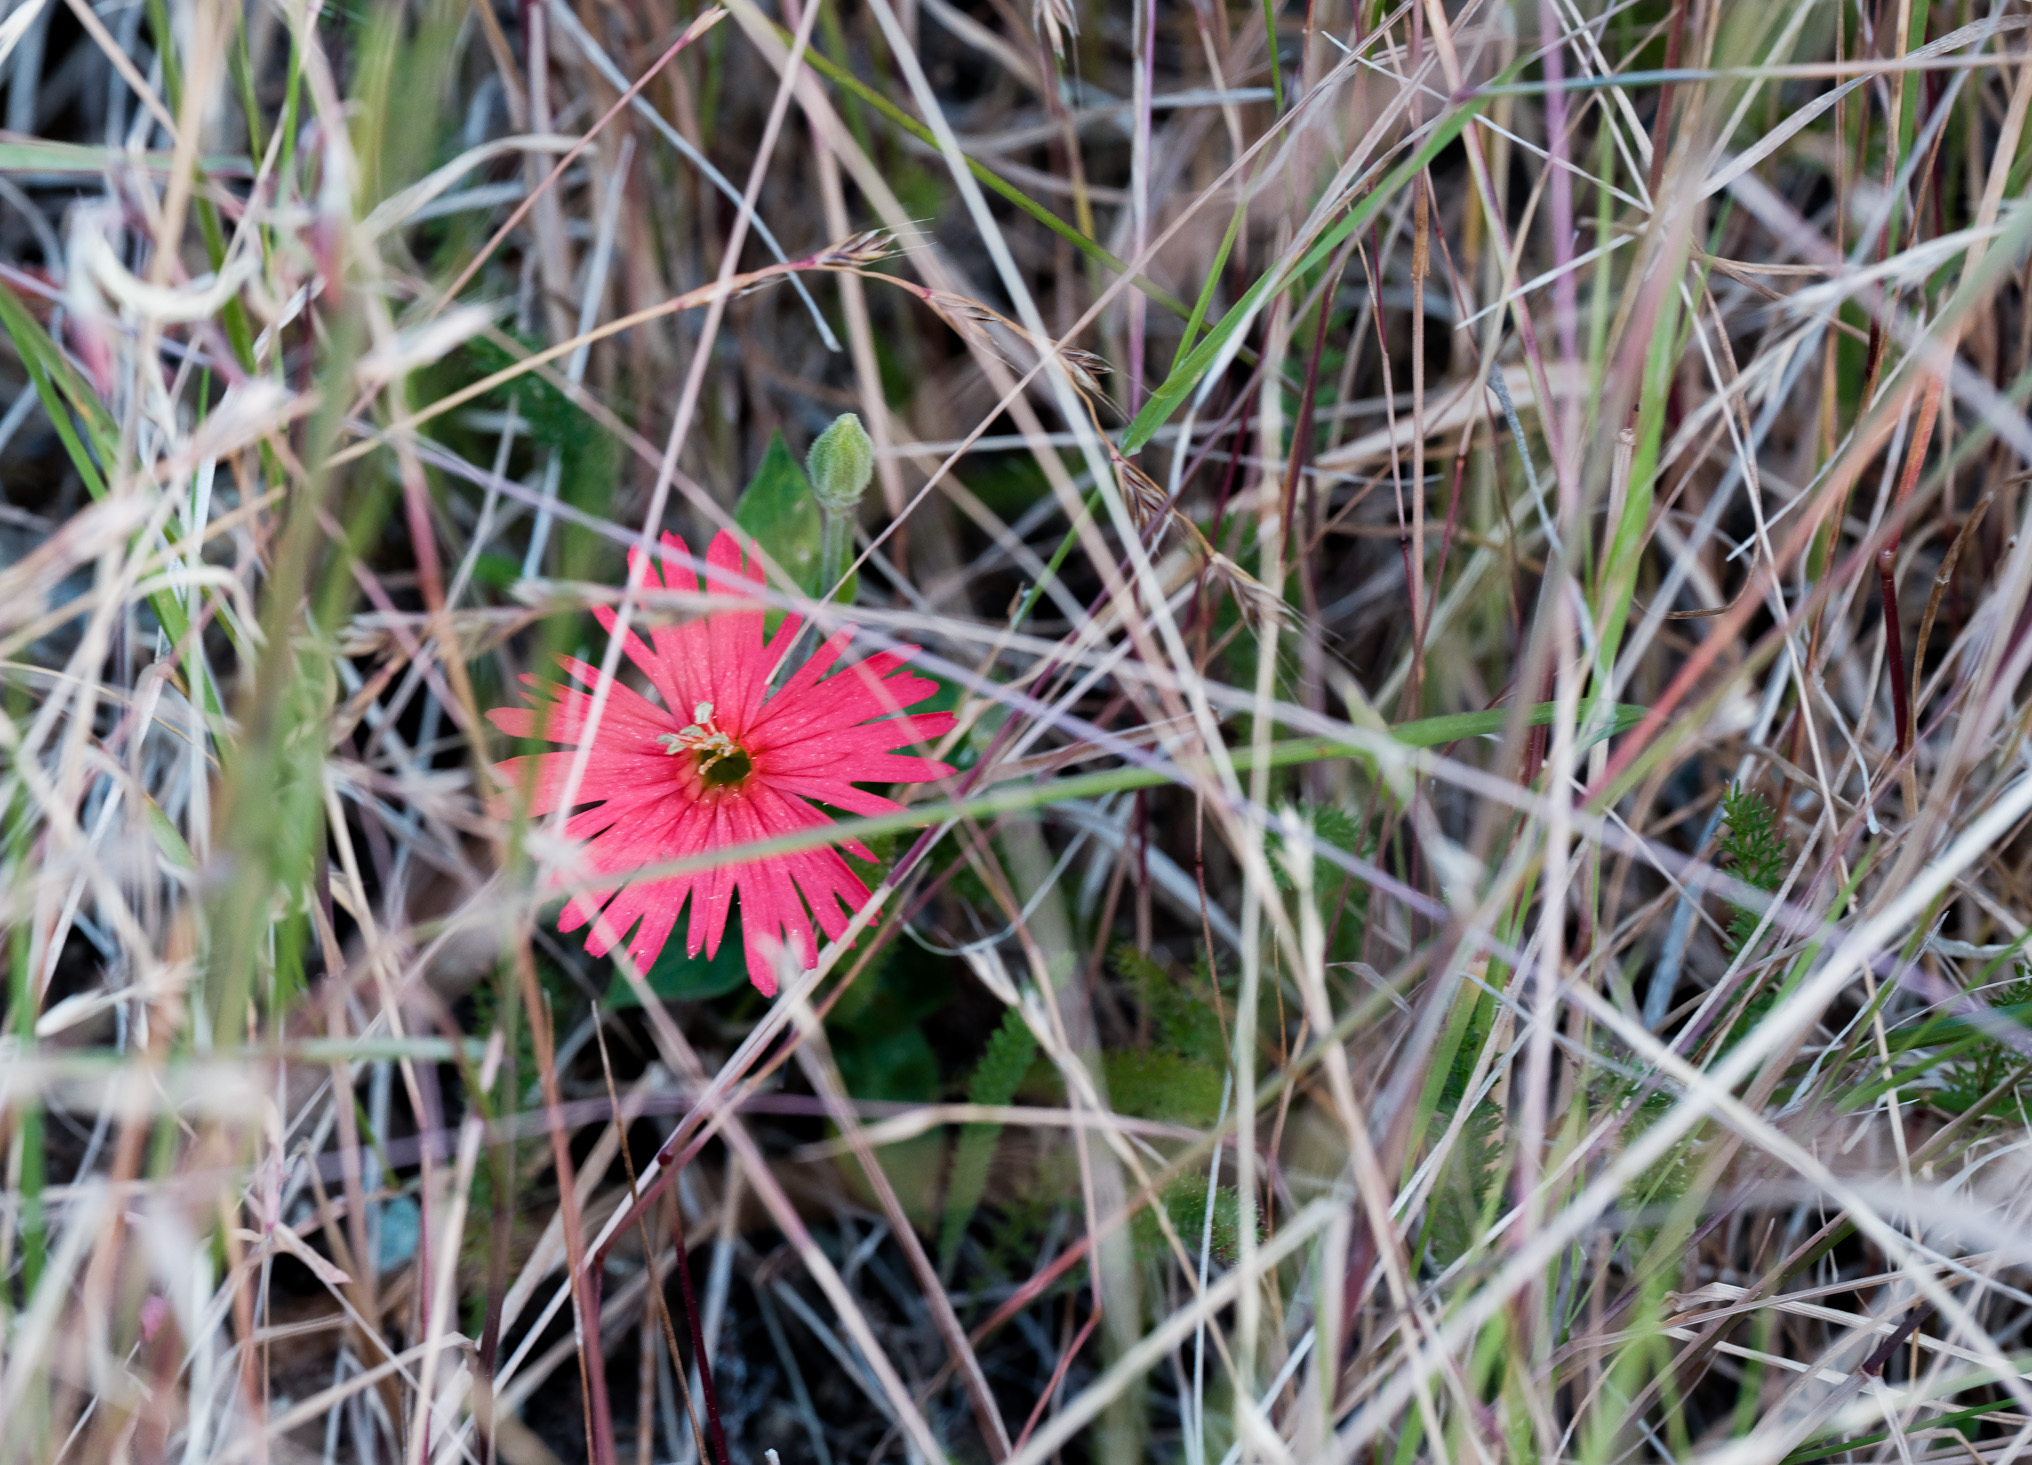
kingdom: Plantae
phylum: Tracheophyta
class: Magnoliopsida
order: Caryophyllales
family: Caryophyllaceae
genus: Silene
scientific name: Silene laciniata
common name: Indian-pink
